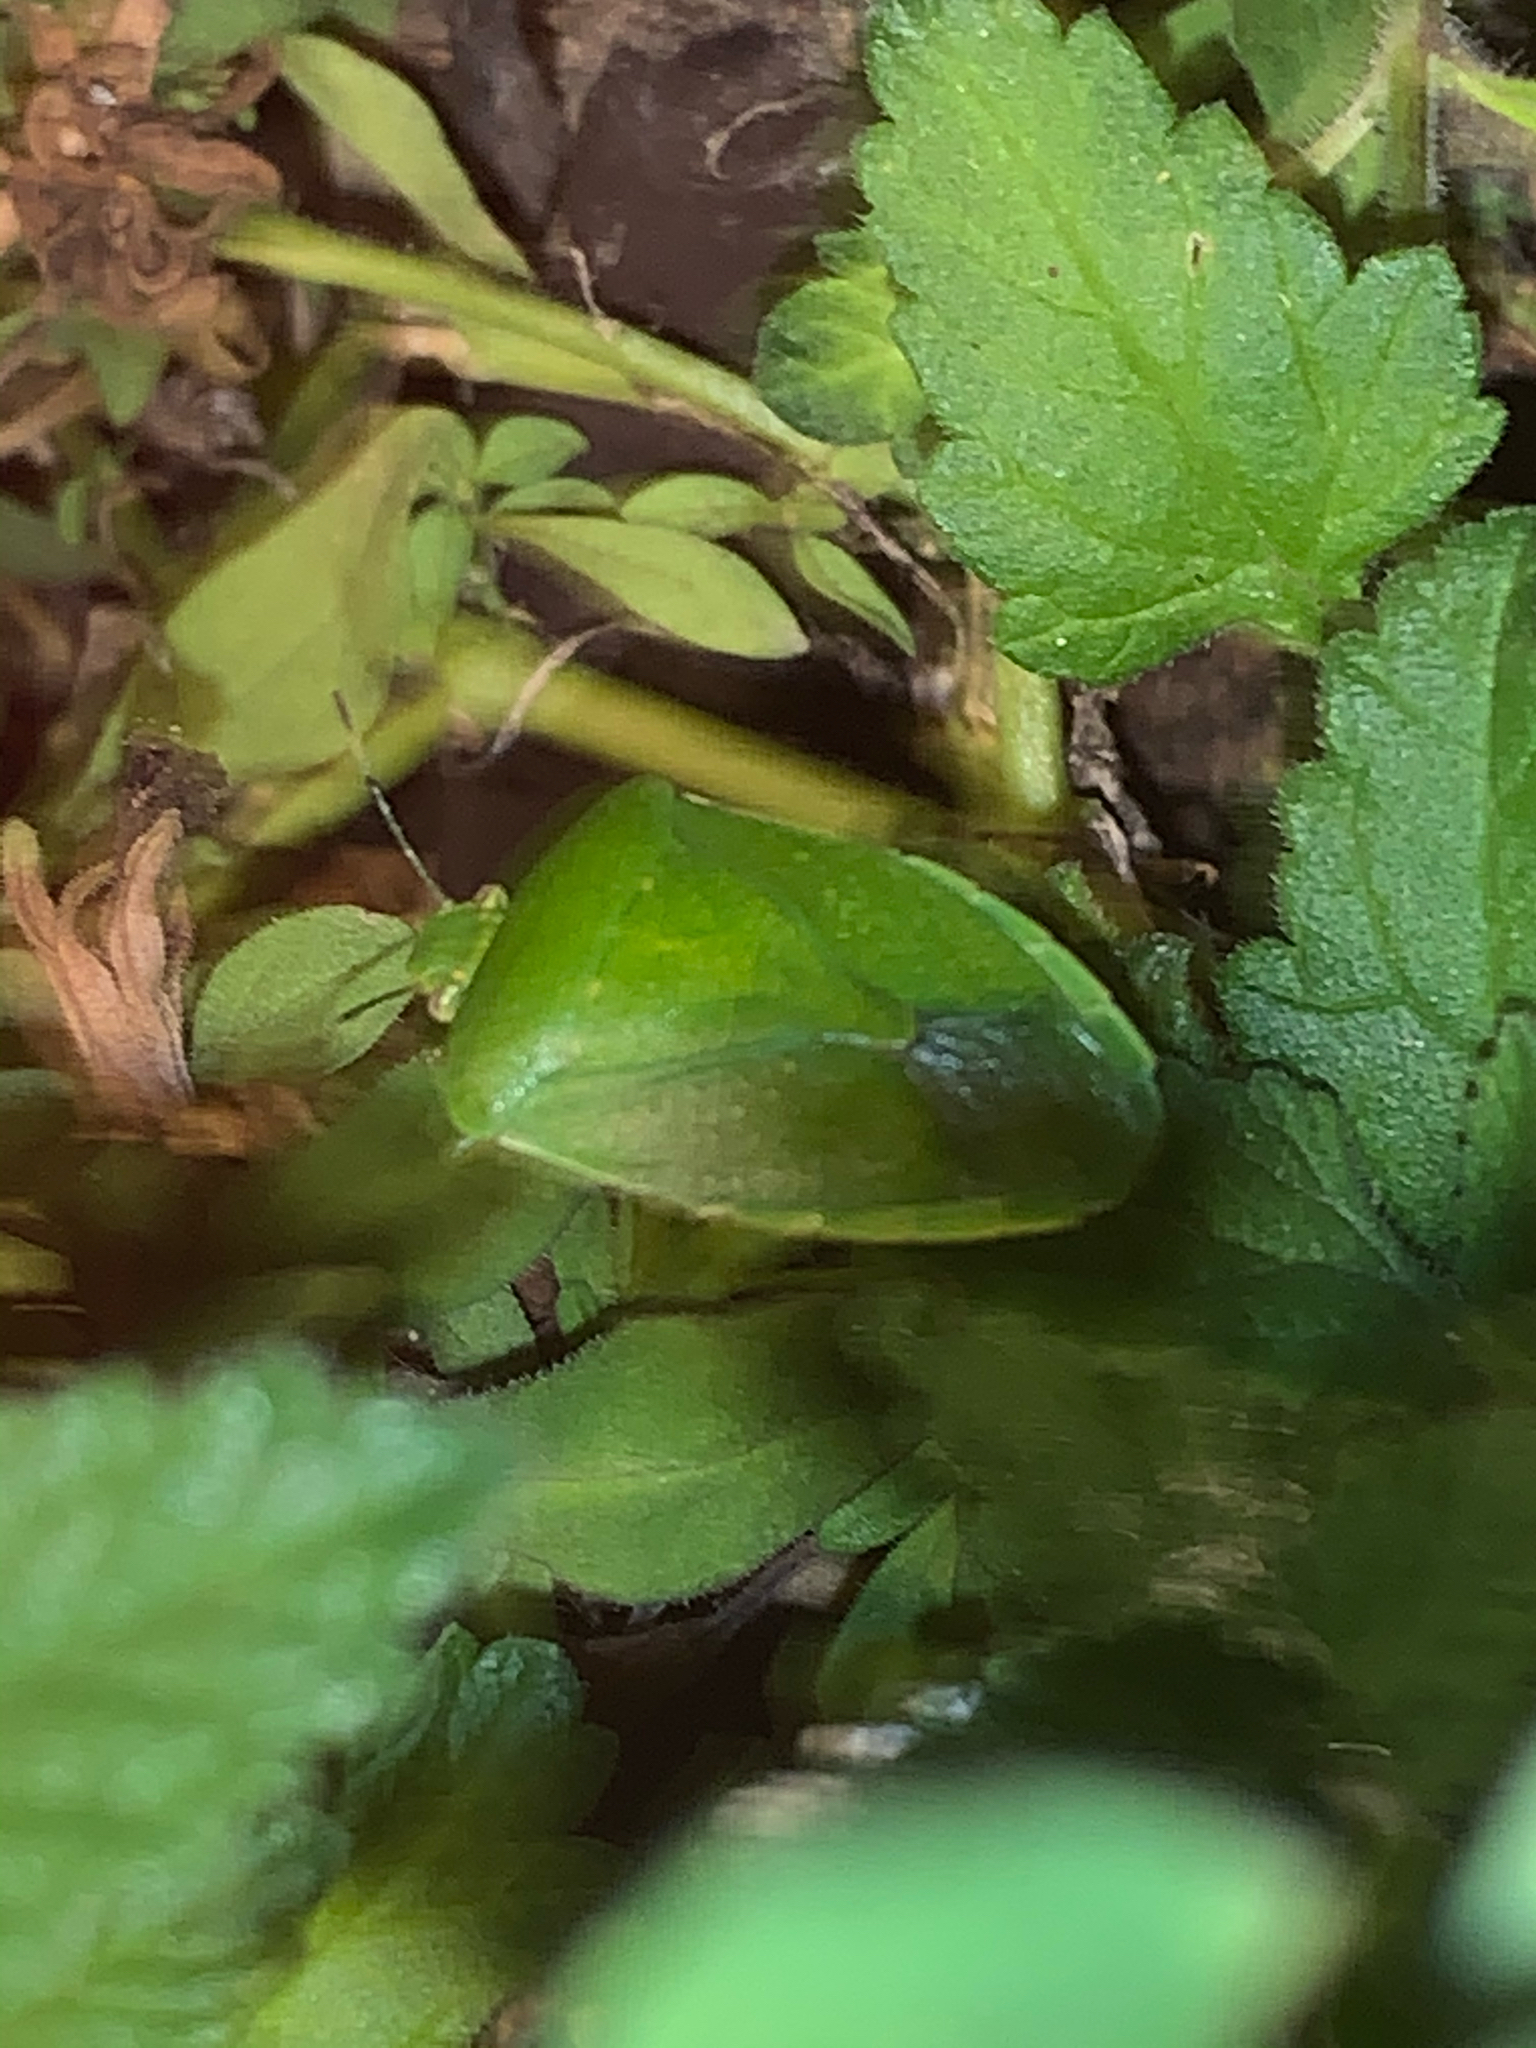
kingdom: Animalia
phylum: Arthropoda
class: Insecta
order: Hemiptera
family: Pentatomidae
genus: Chinavia
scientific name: Chinavia hilaris
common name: Green stink bug
